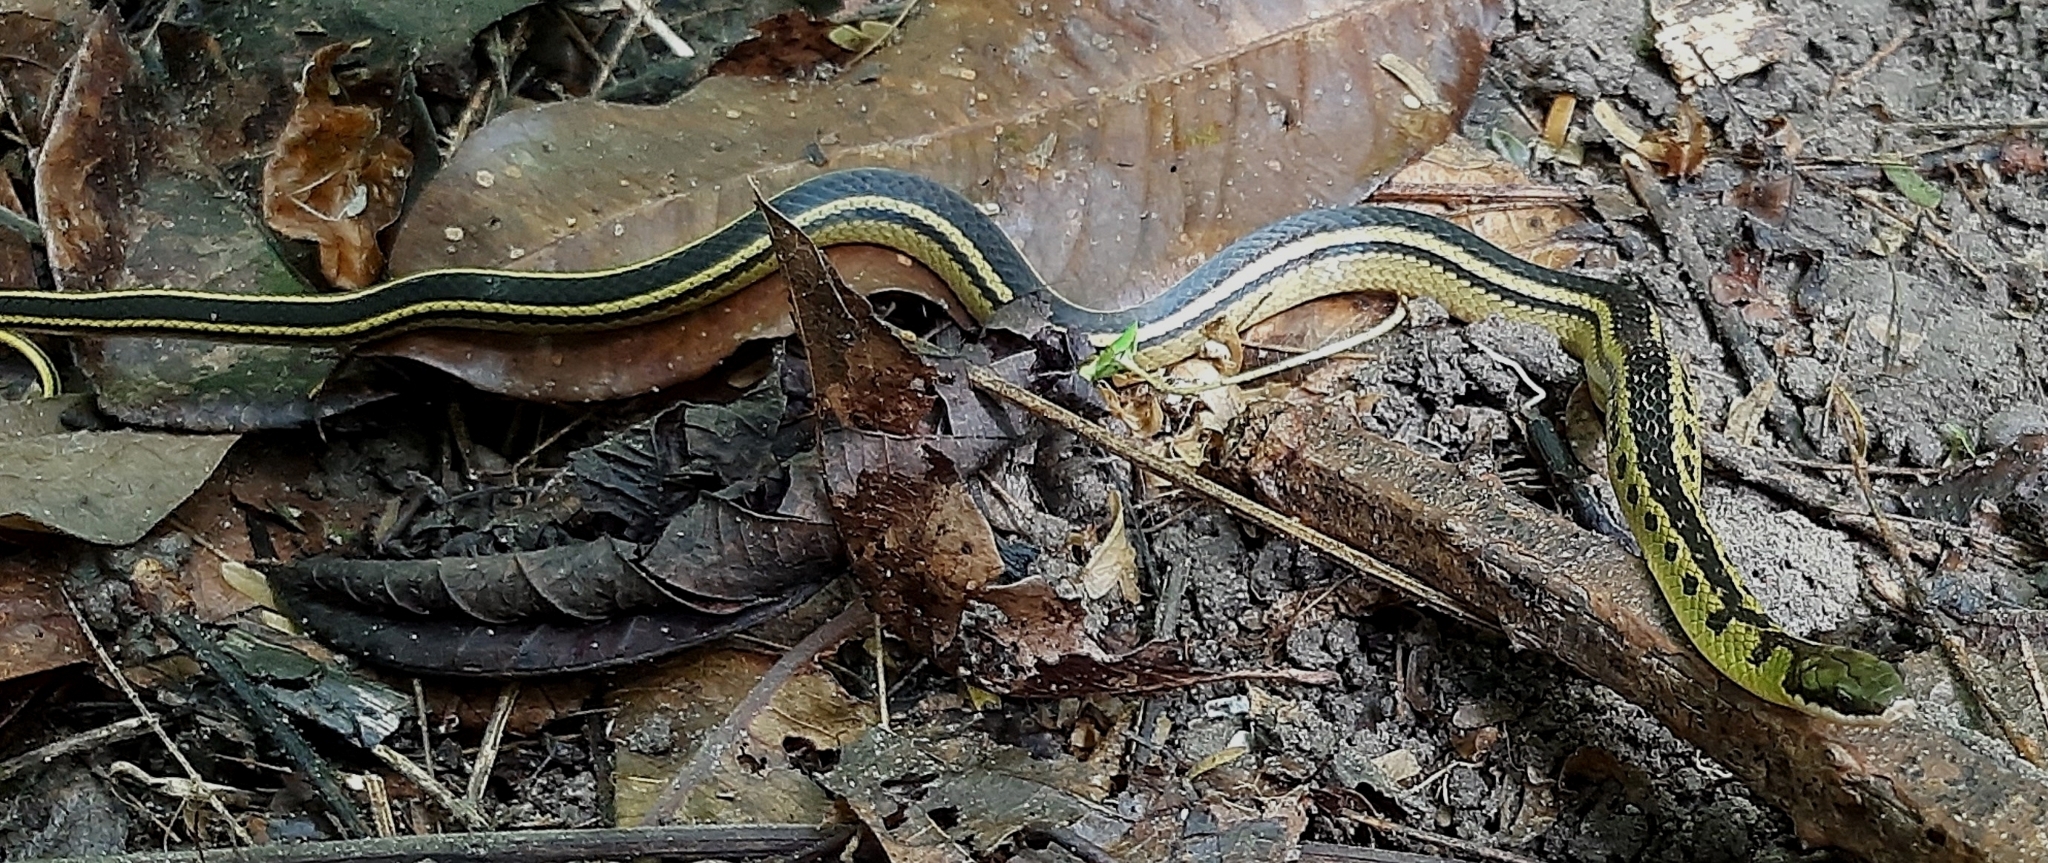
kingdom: Animalia
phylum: Chordata
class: Squamata
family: Colubridae
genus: Erythrolamprus
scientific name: Erythrolamprus melanotus
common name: Shaw's dark ground snake
